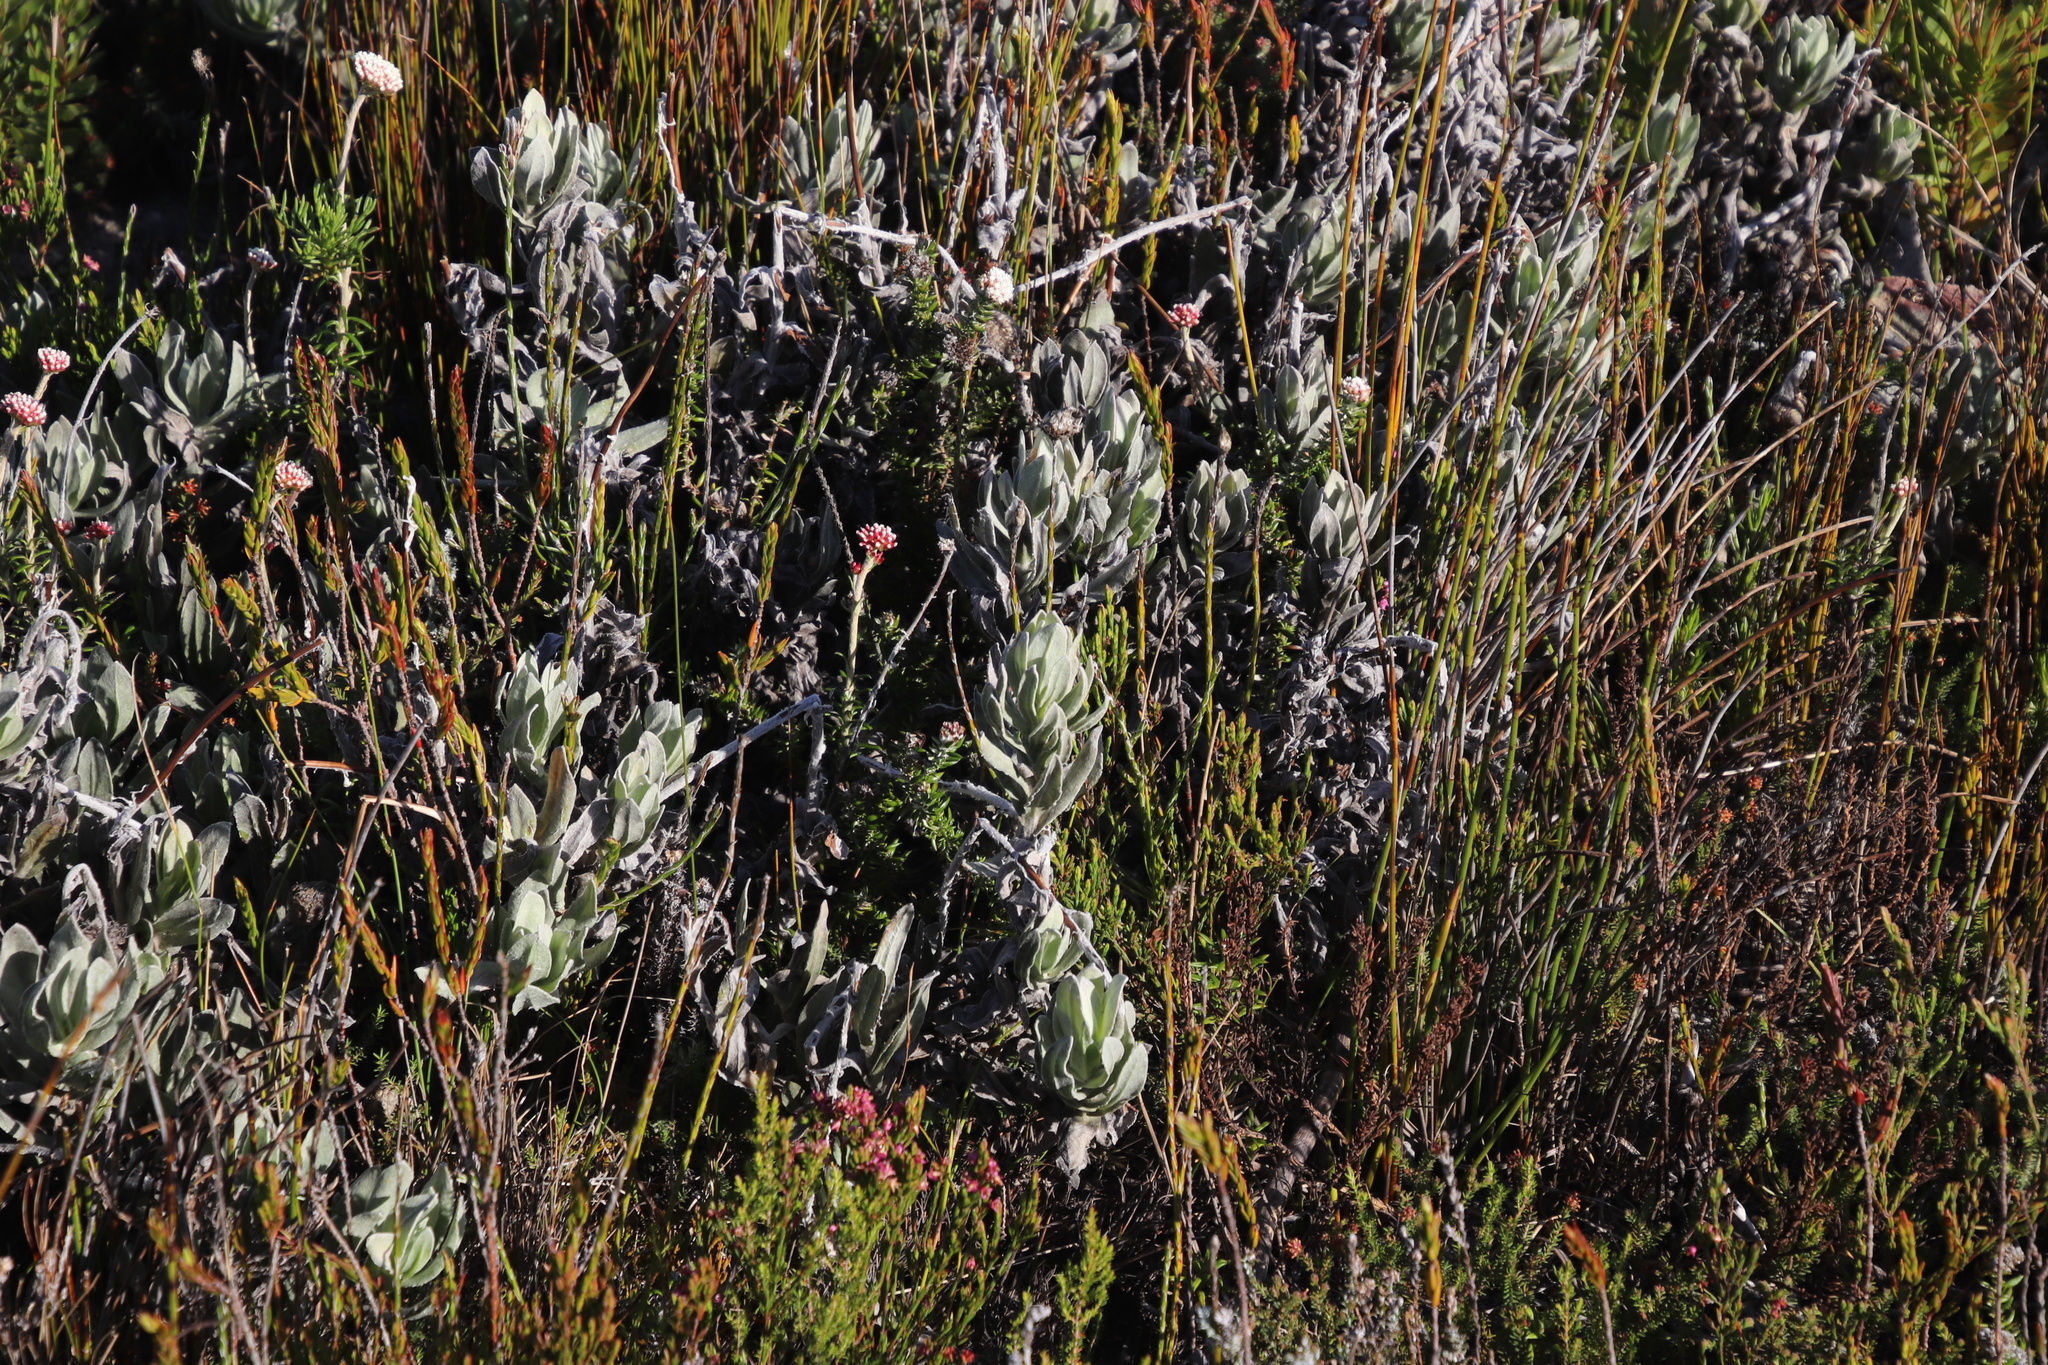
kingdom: Plantae
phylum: Tracheophyta
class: Magnoliopsida
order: Asterales
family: Asteraceae
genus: Syncarpha
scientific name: Syncarpha speciosissima
